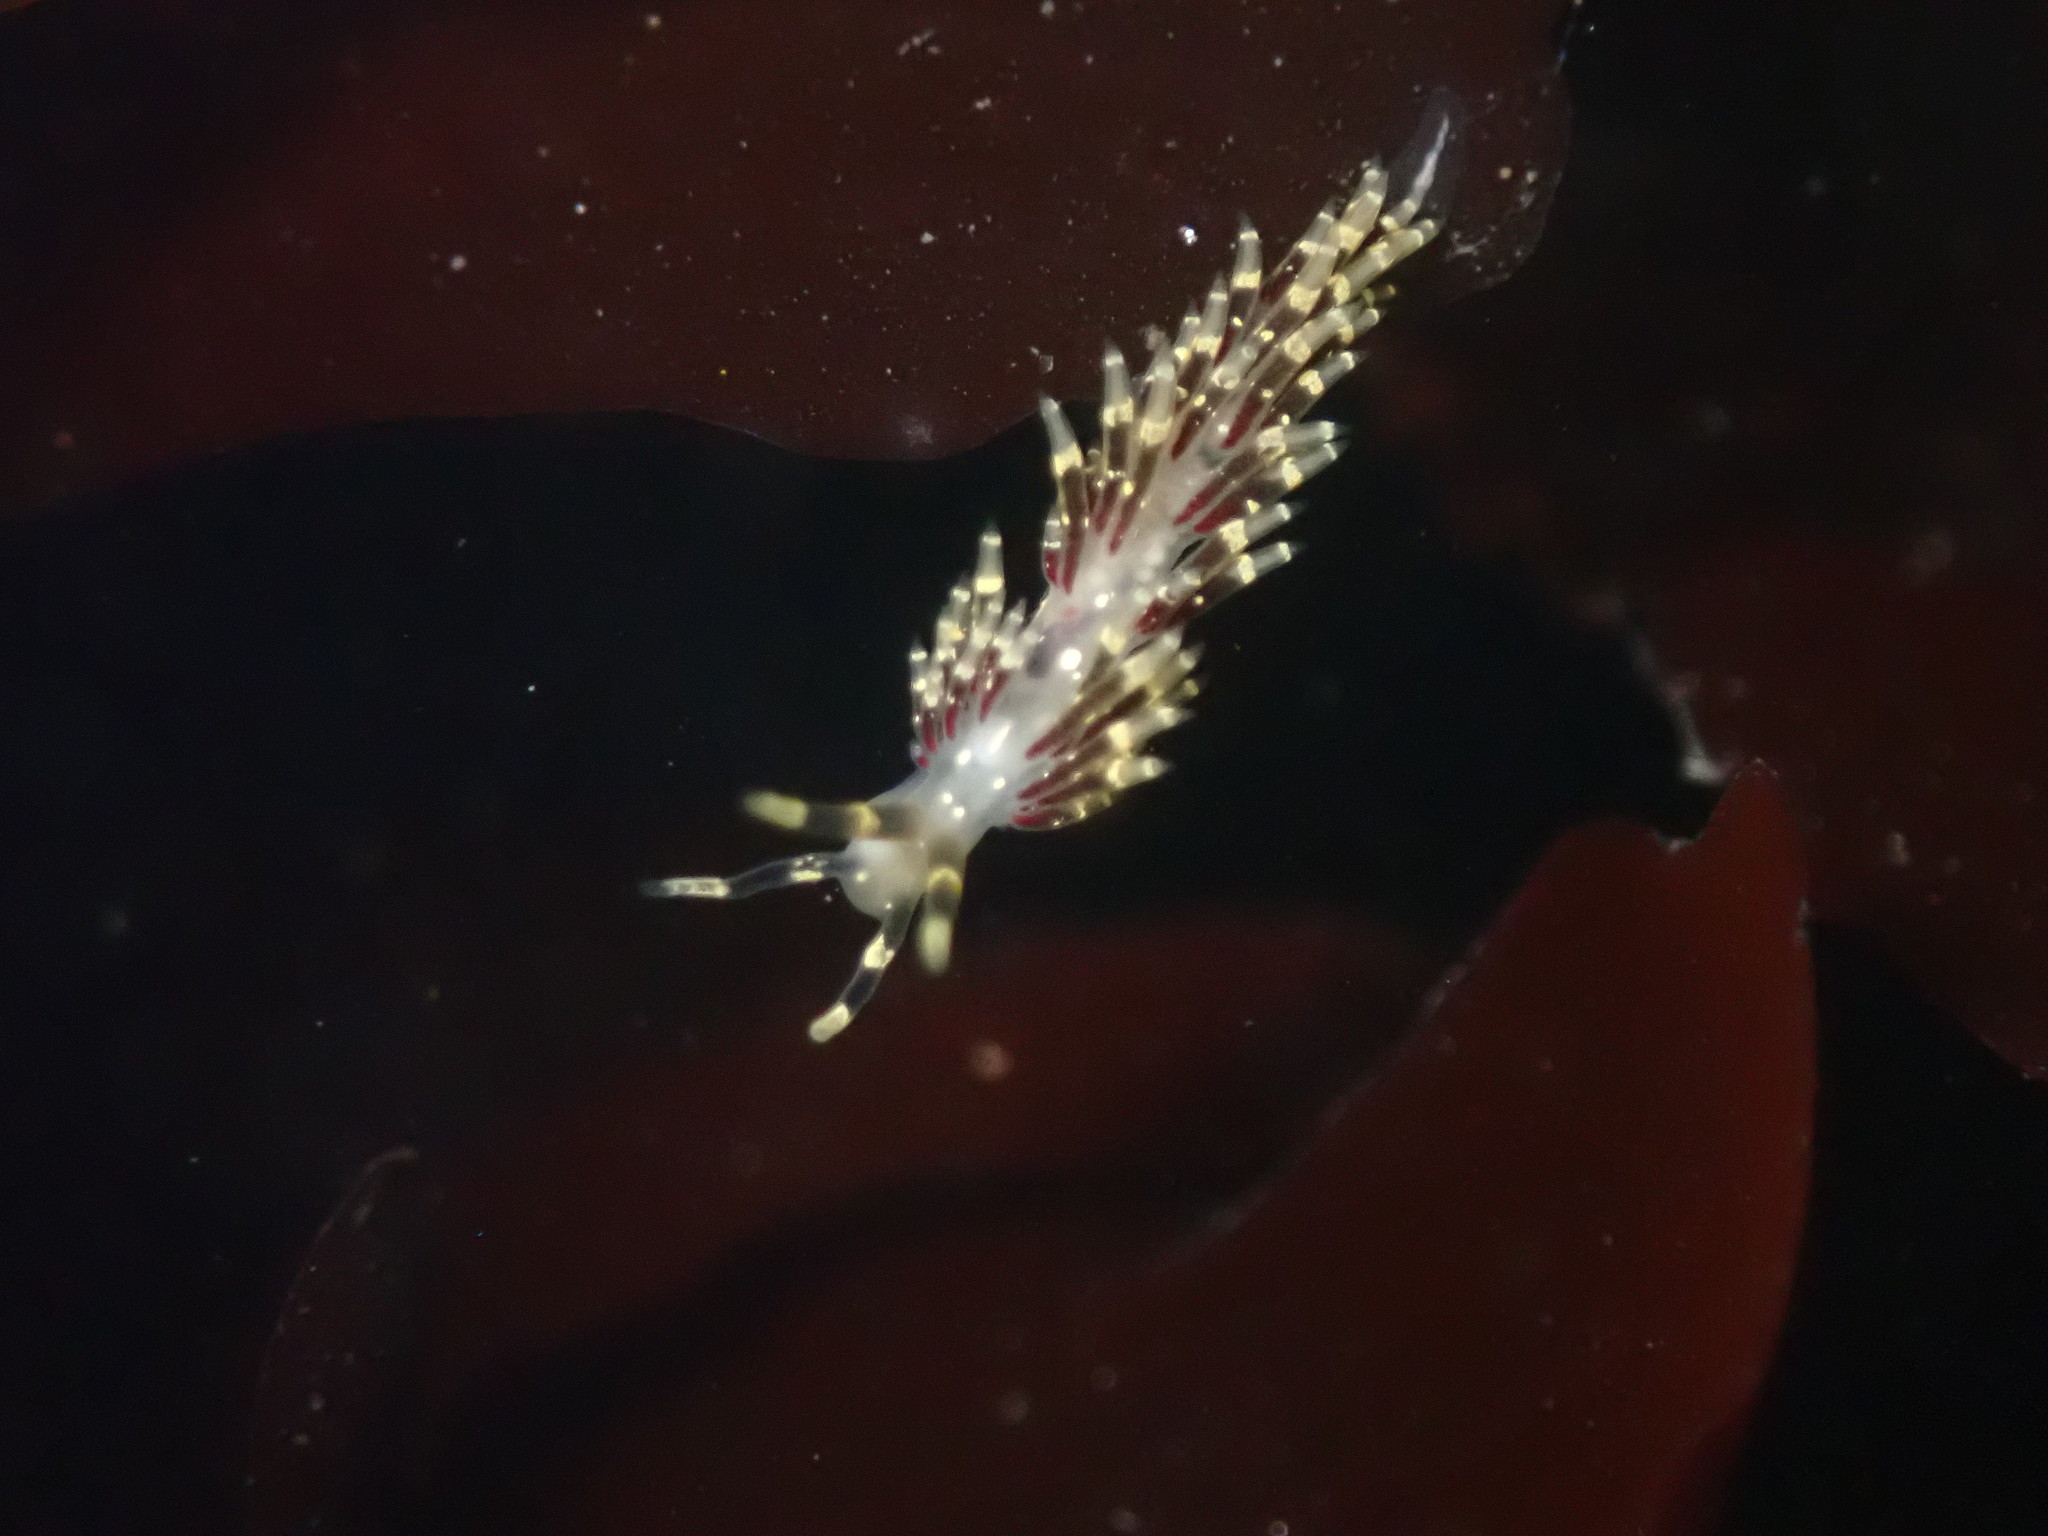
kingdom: Animalia
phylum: Mollusca
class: Gastropoda
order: Nudibranchia
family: Abronicidae
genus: Abronica
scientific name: Abronica abronia
